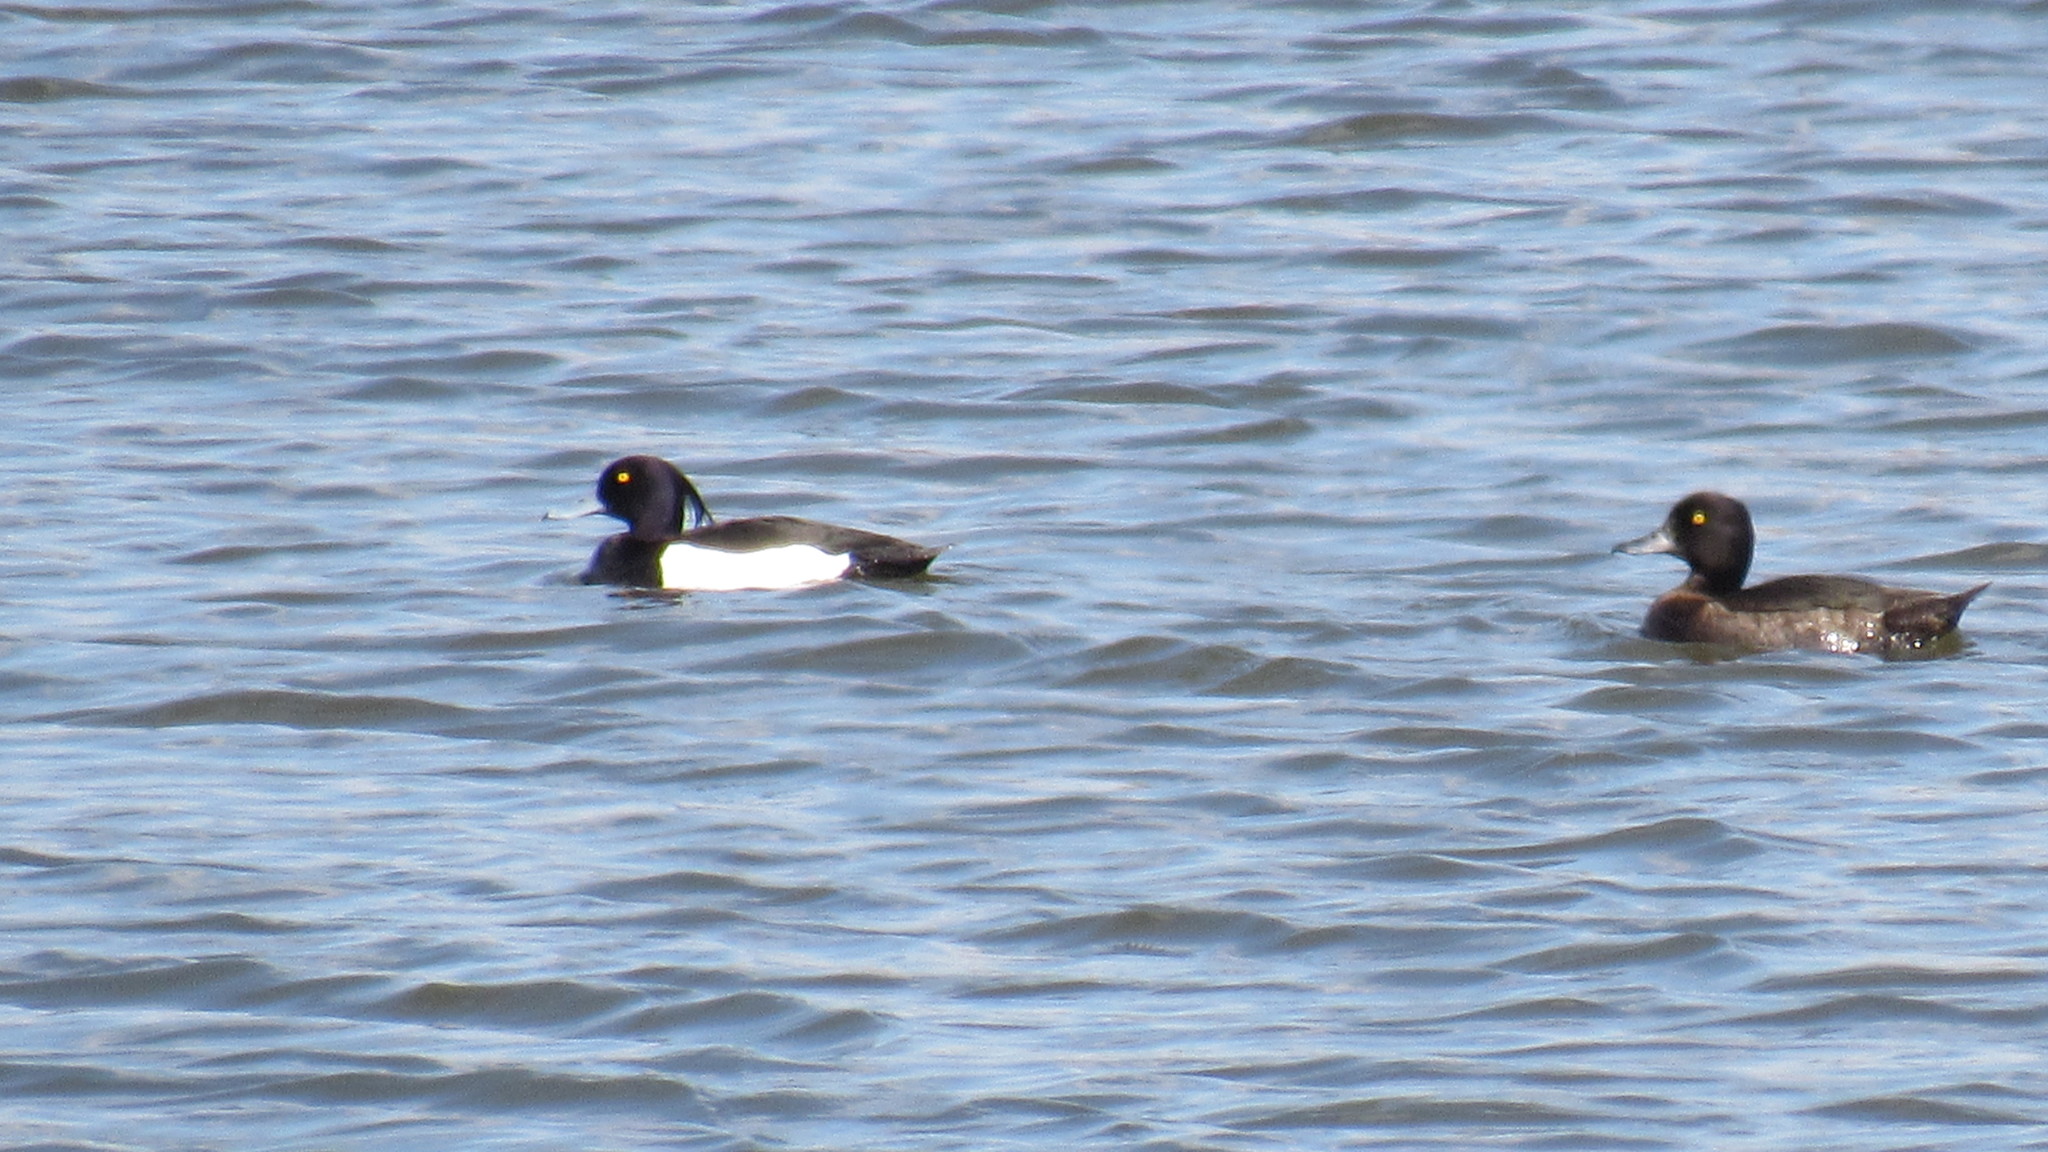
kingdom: Animalia
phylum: Chordata
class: Aves
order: Anseriformes
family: Anatidae
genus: Aythya
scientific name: Aythya fuligula
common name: Tufted duck
